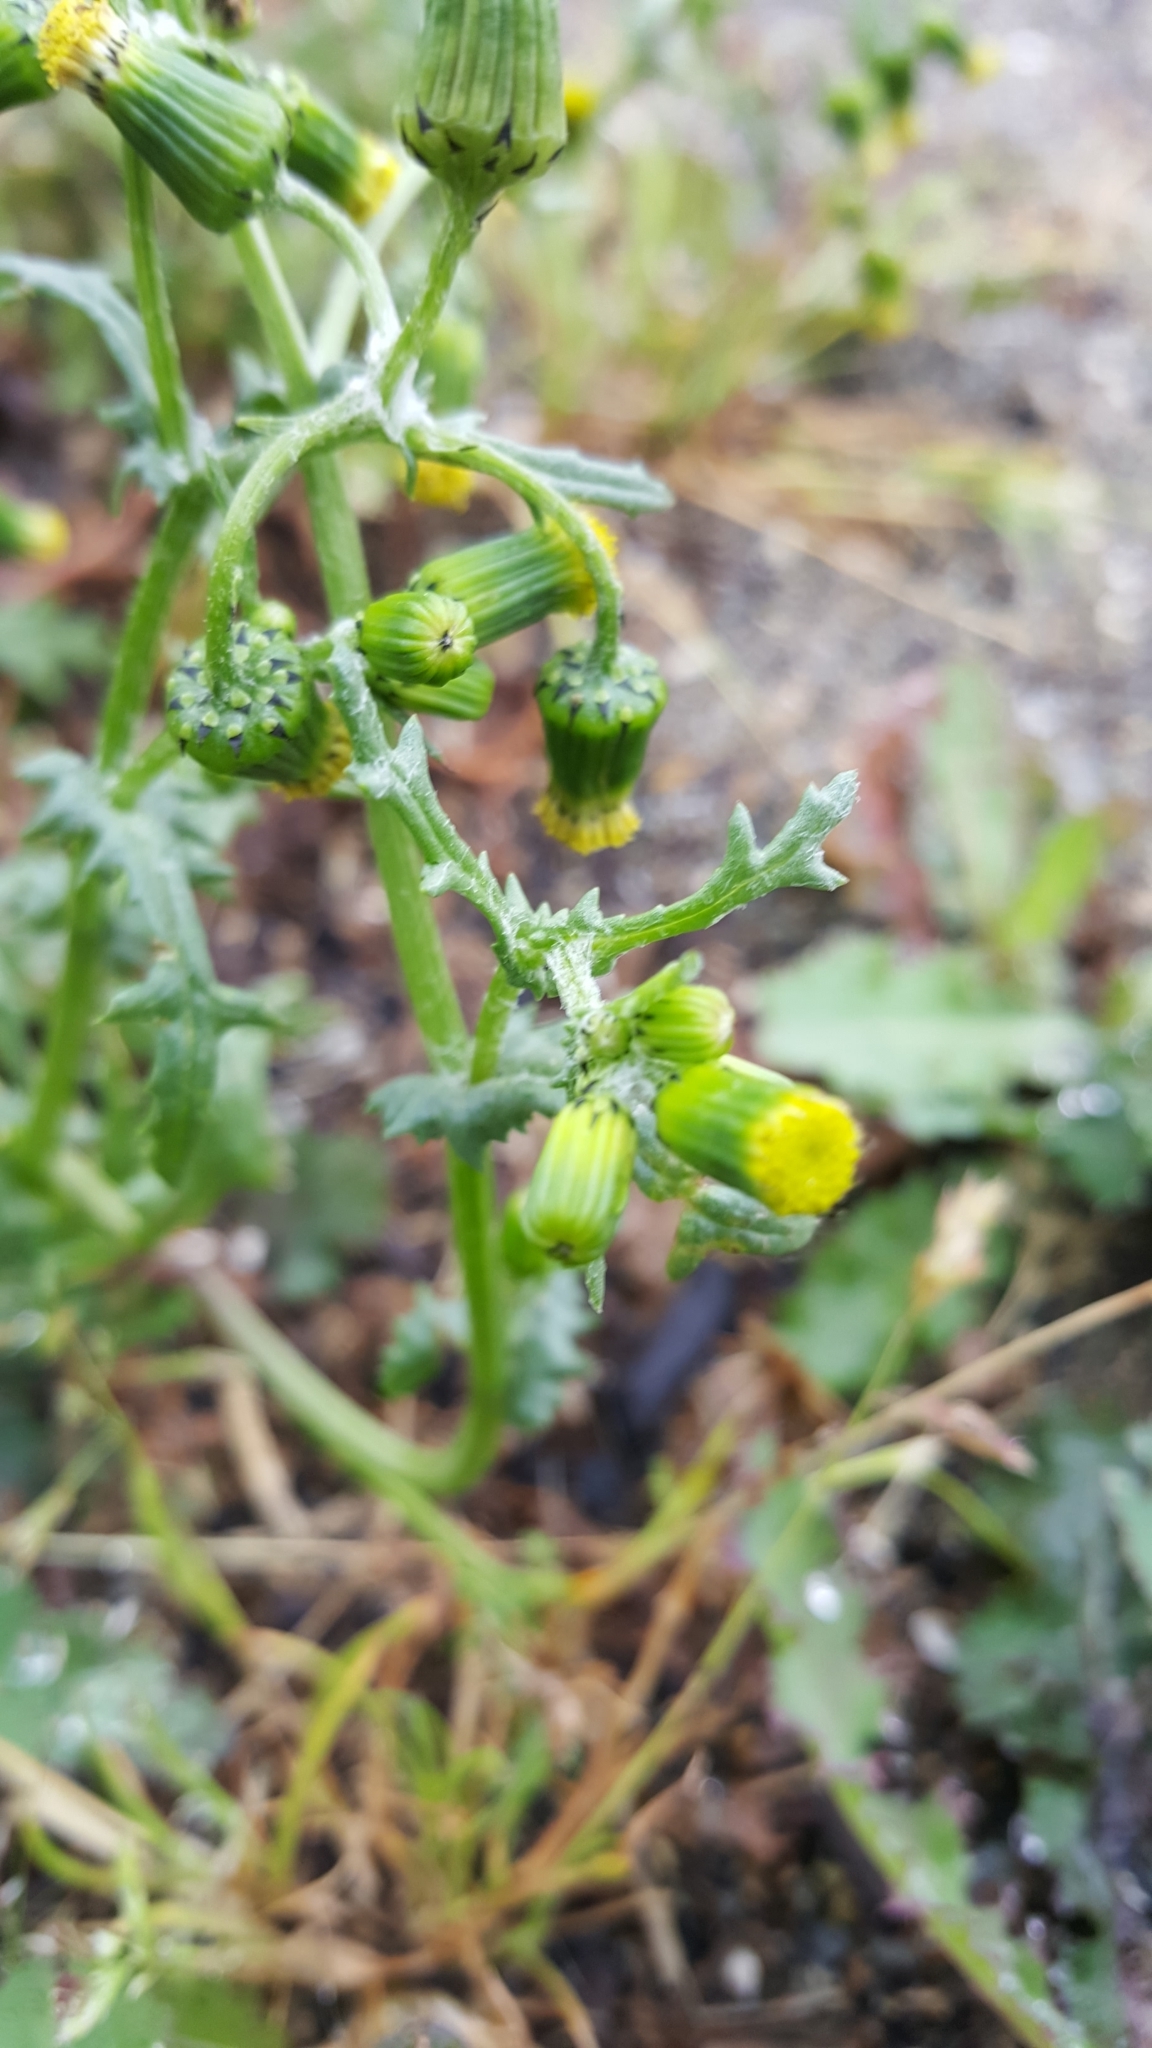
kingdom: Plantae
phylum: Tracheophyta
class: Magnoliopsida
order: Asterales
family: Asteraceae
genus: Senecio
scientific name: Senecio vulgaris
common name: Old-man-in-the-spring
